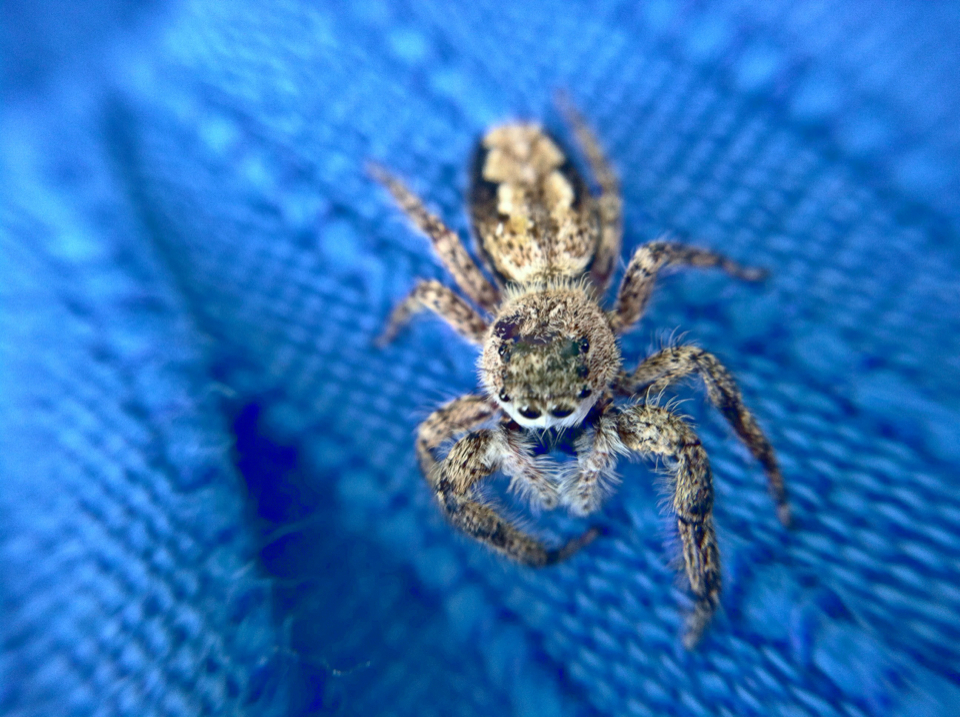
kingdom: Animalia
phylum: Arthropoda
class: Arachnida
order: Araneae
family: Salticidae
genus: Platycryptus
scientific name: Platycryptus undatus
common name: Tan jumping spider
